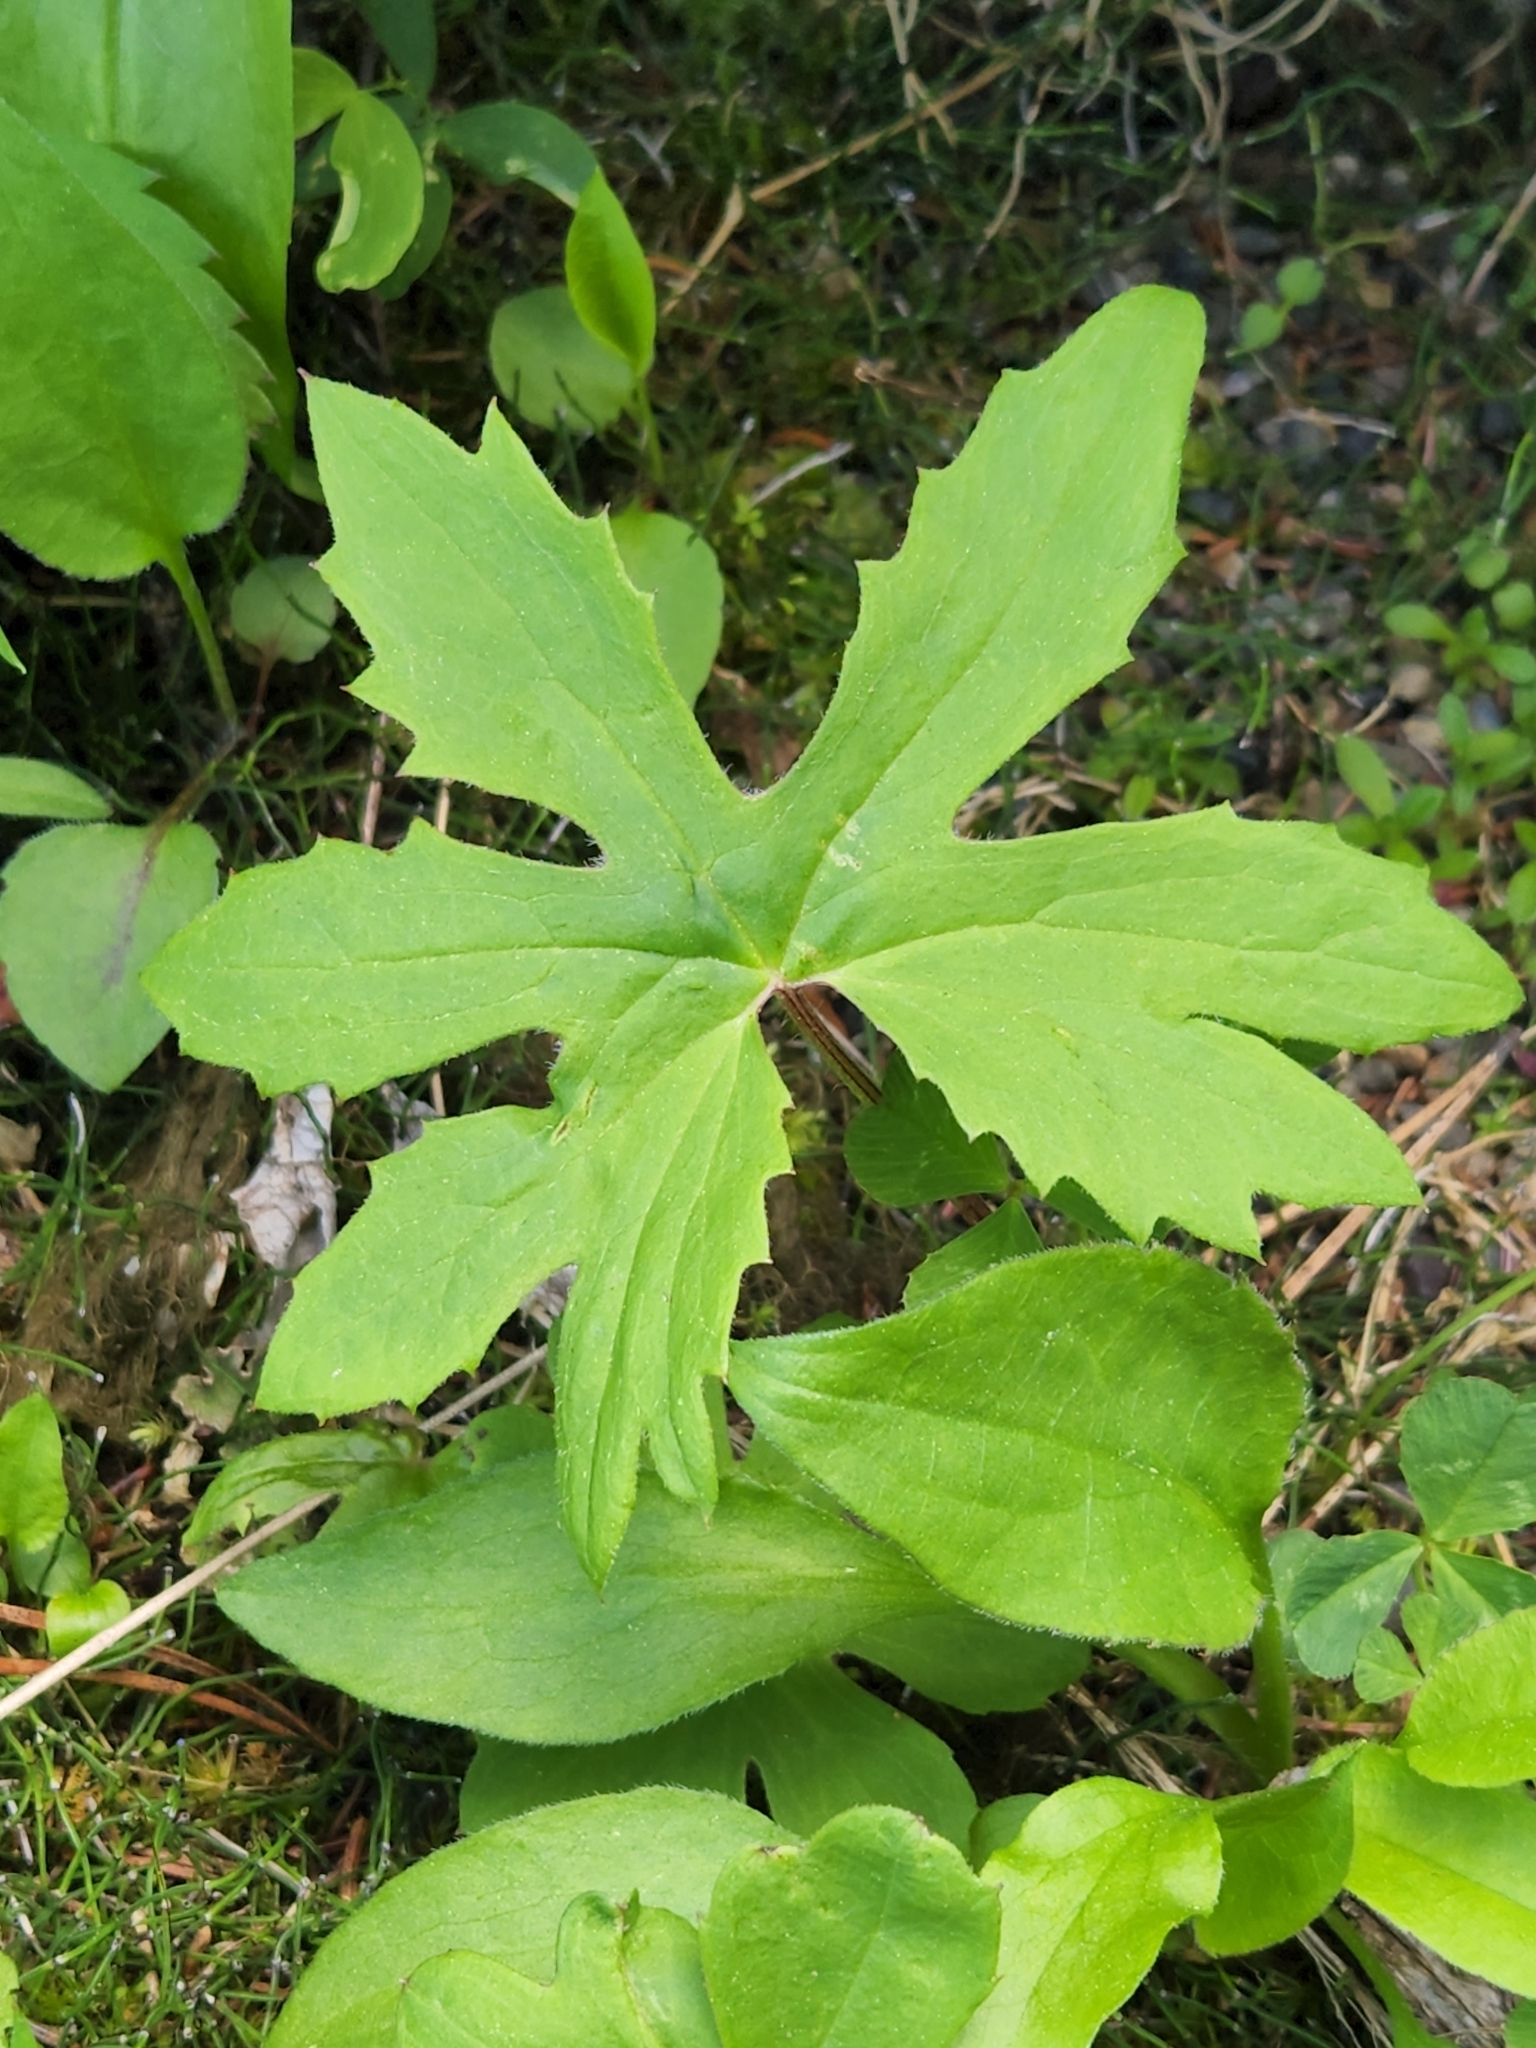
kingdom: Plantae
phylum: Tracheophyta
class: Magnoliopsida
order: Asterales
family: Asteraceae
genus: Petasites
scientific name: Petasites frigidus
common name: Arctic butterbur
